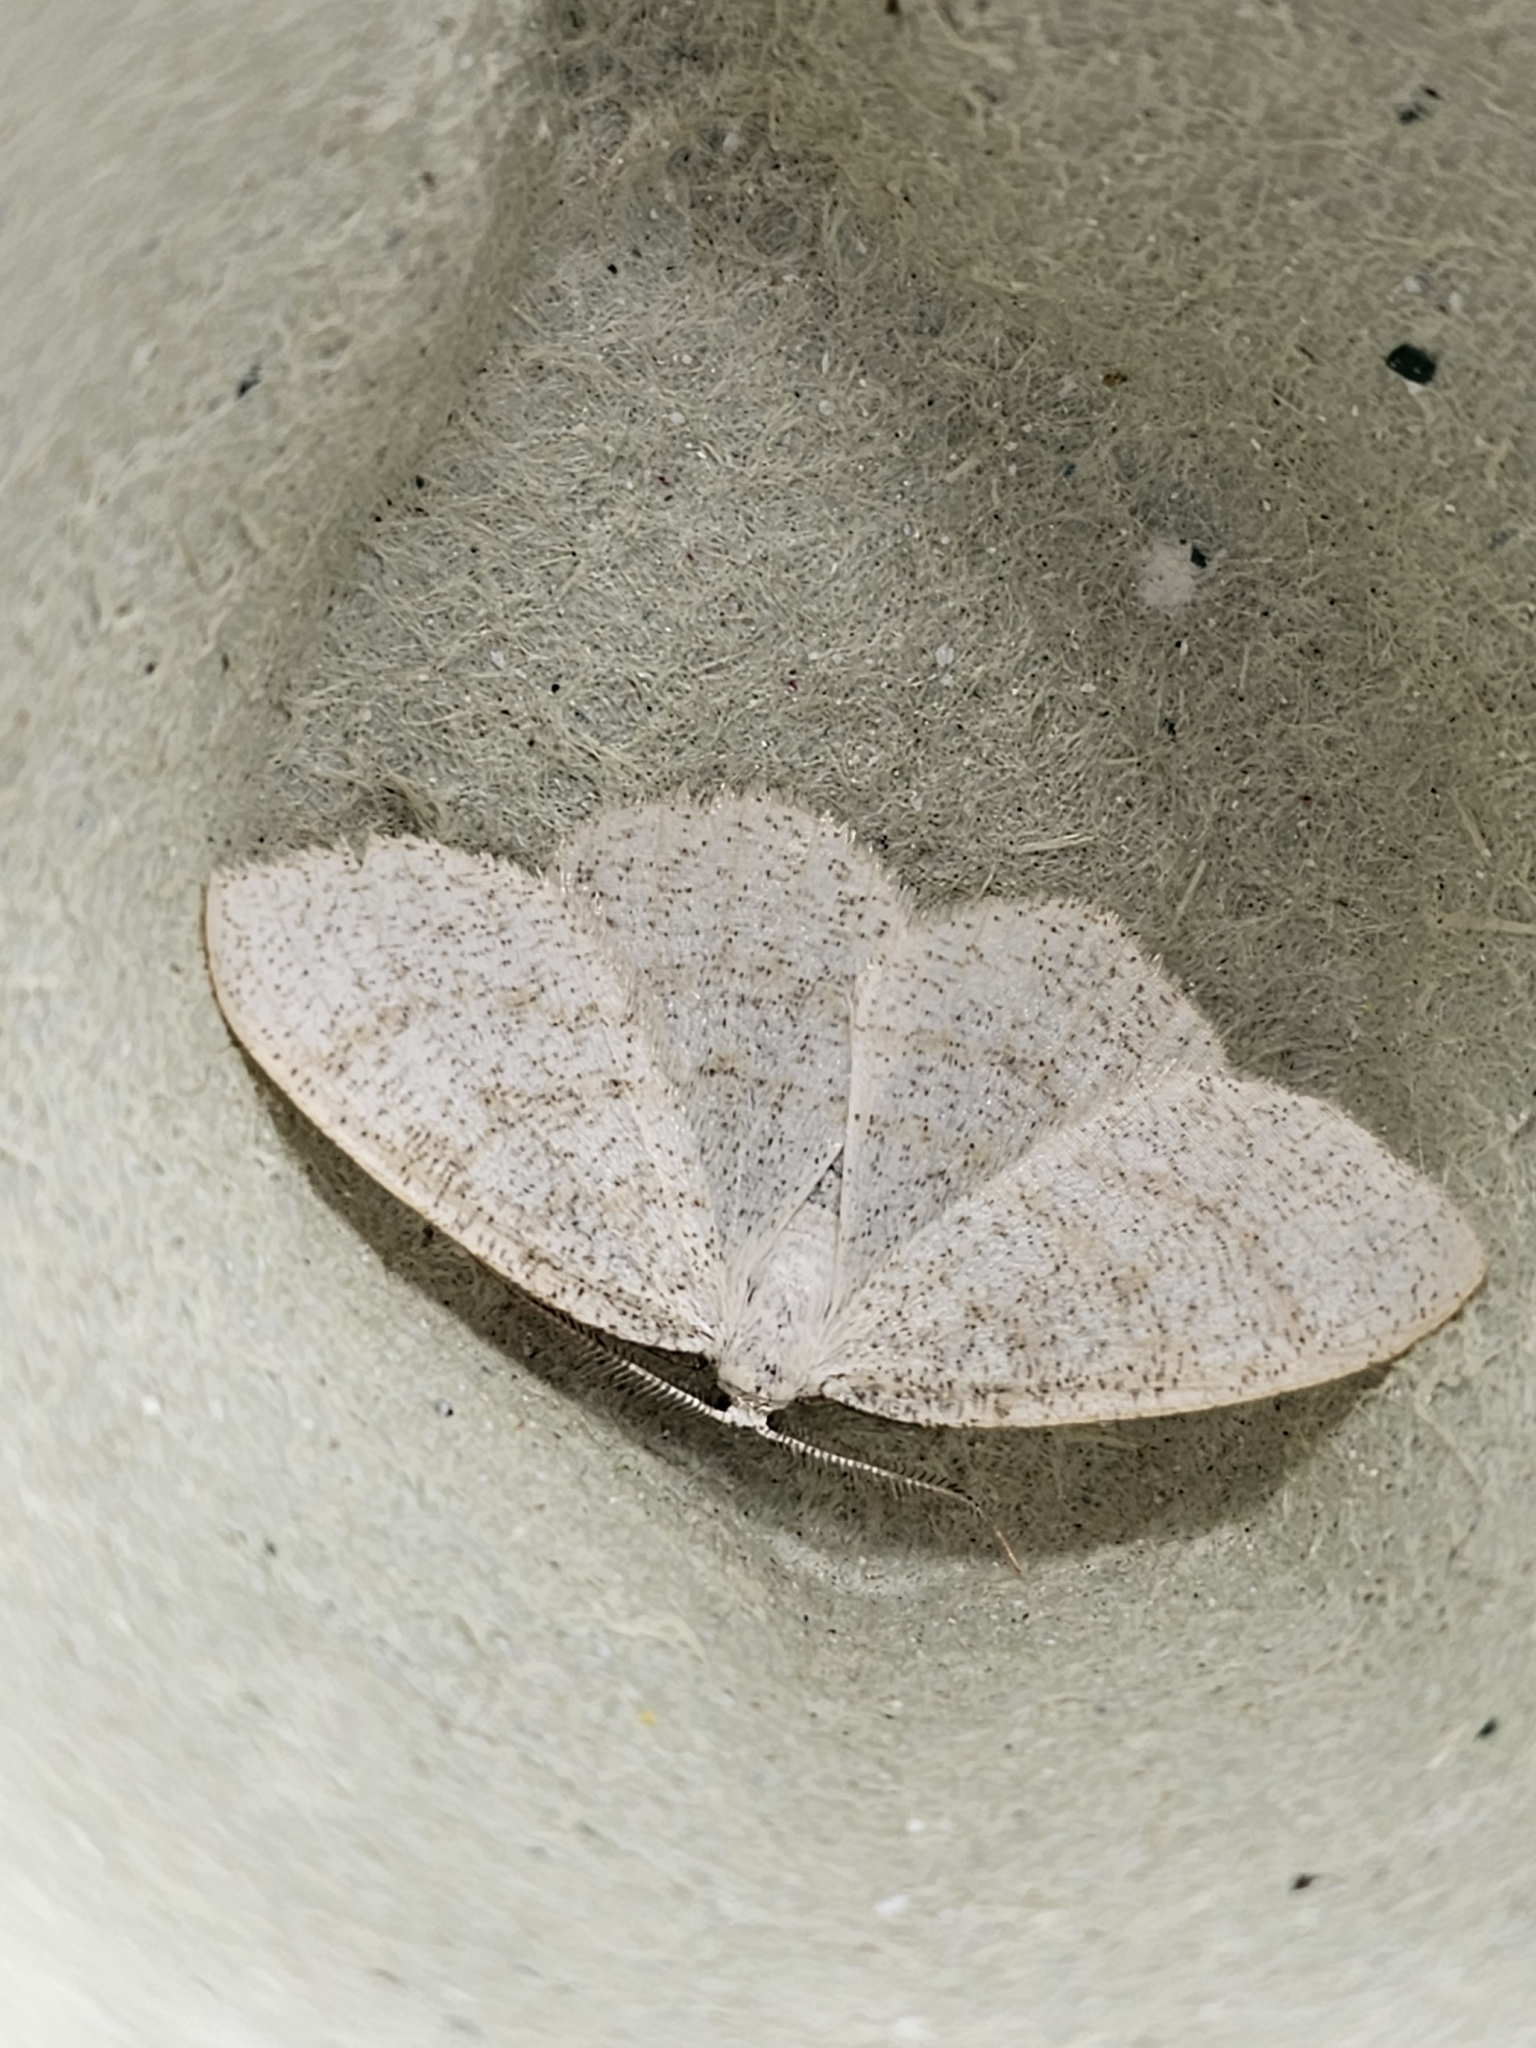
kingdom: Animalia
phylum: Arthropoda
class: Insecta
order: Lepidoptera
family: Geometridae
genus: Cabera
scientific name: Cabera exanthemata
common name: Common wave
